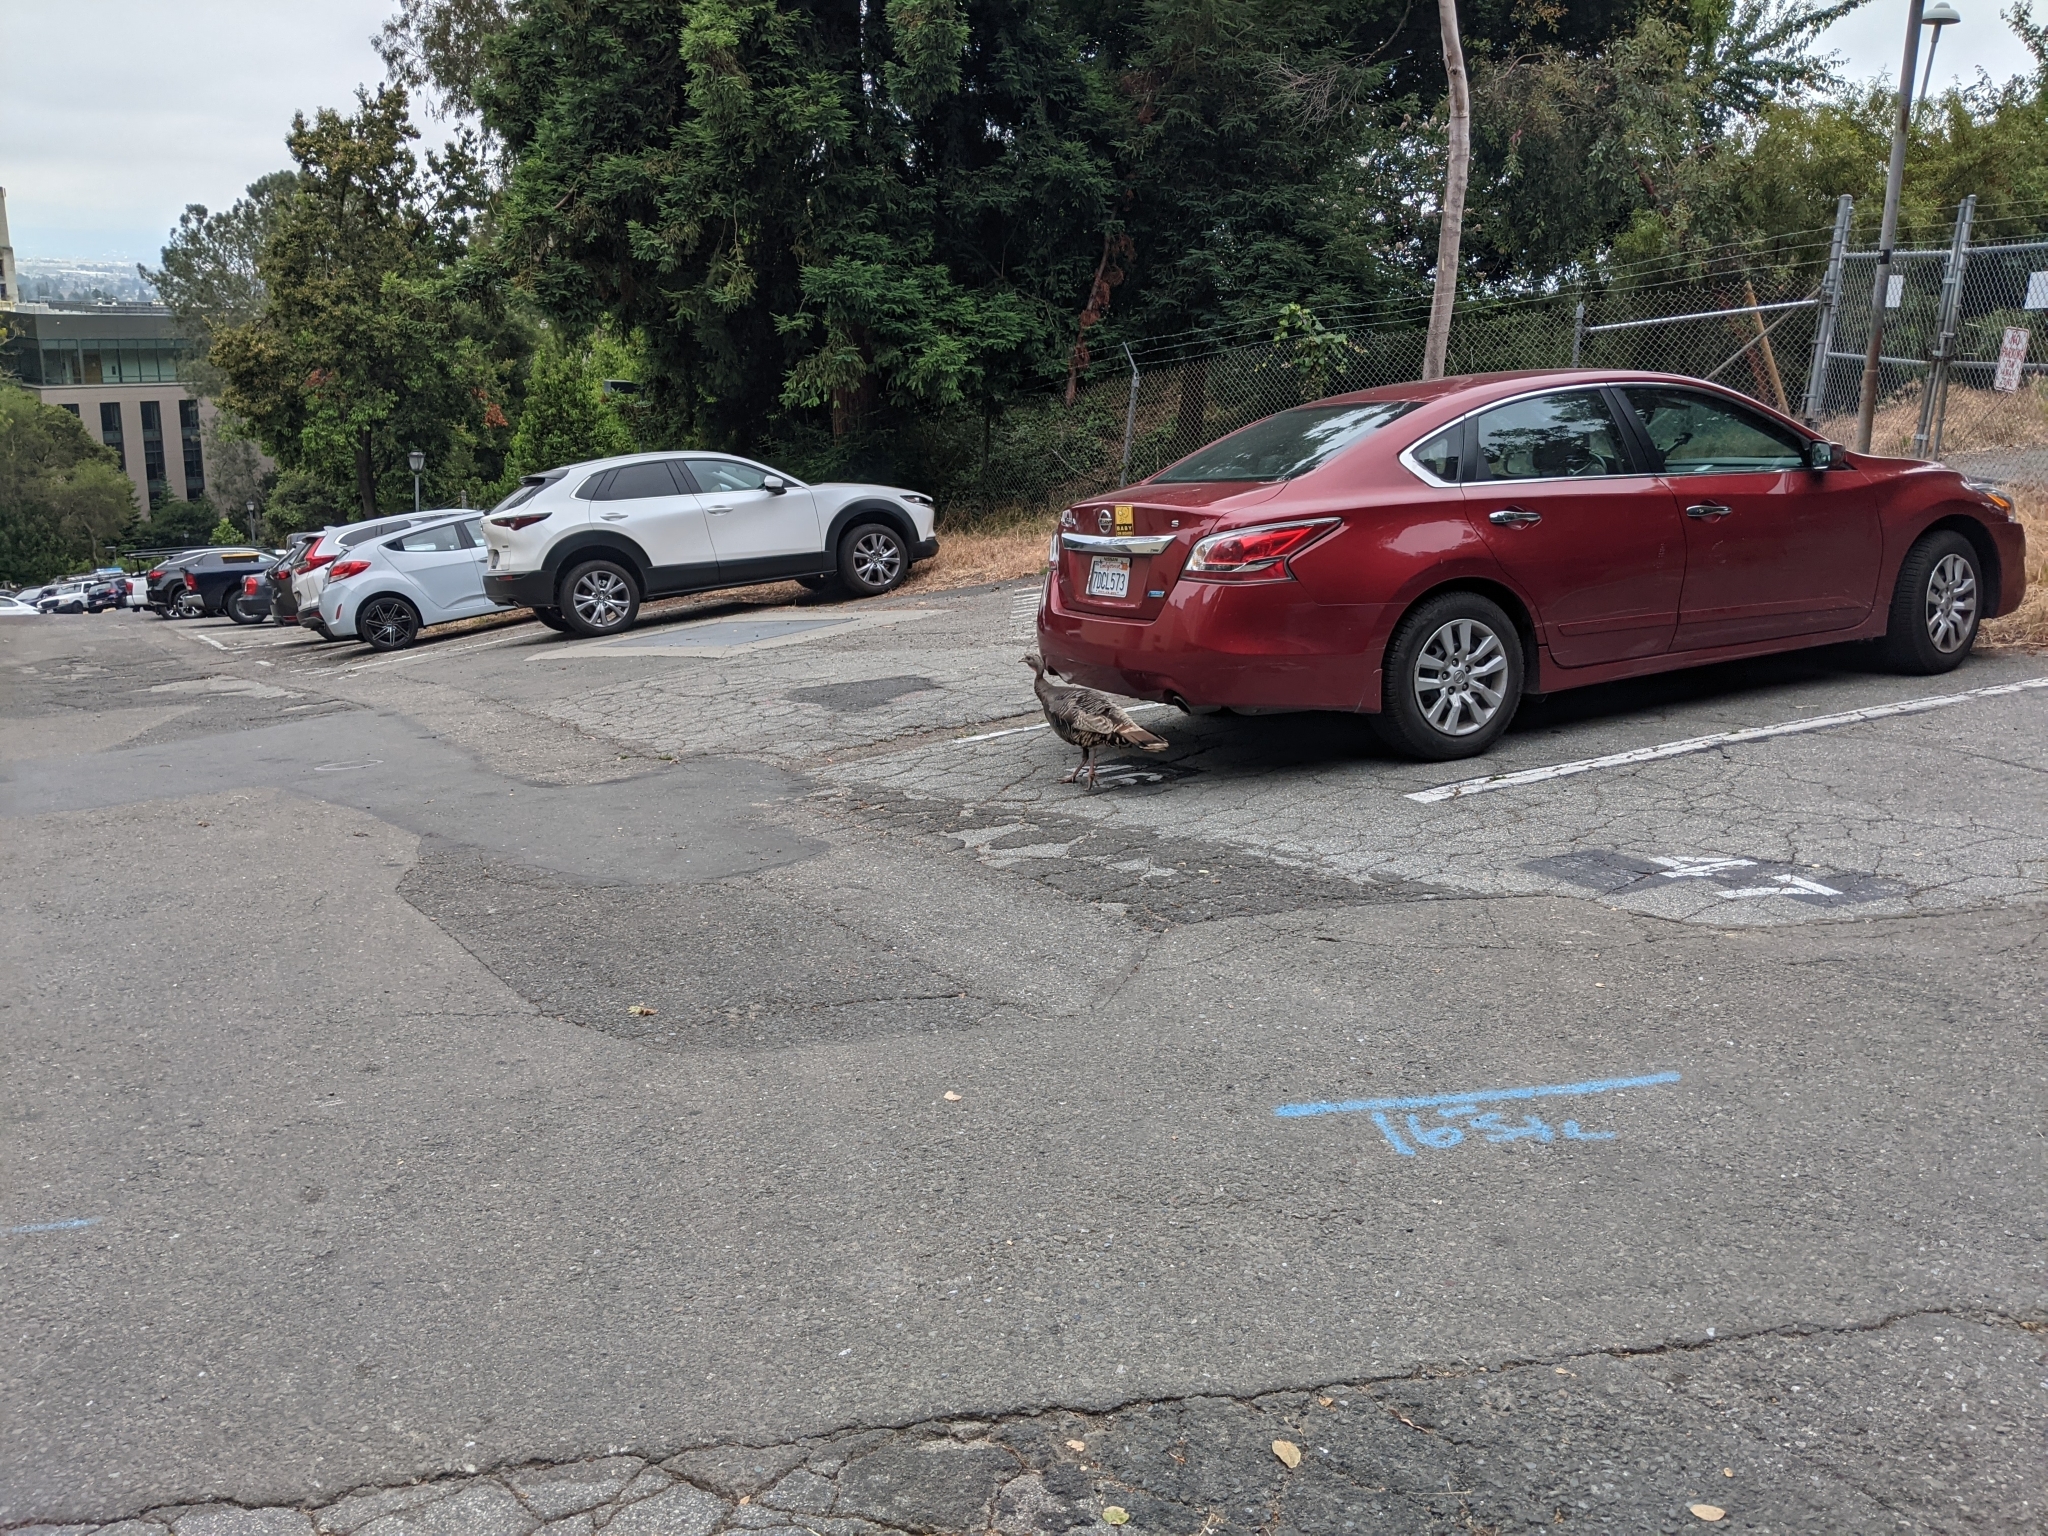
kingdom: Animalia
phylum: Chordata
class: Aves
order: Galliformes
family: Phasianidae
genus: Meleagris
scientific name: Meleagris gallopavo
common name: Wild turkey
